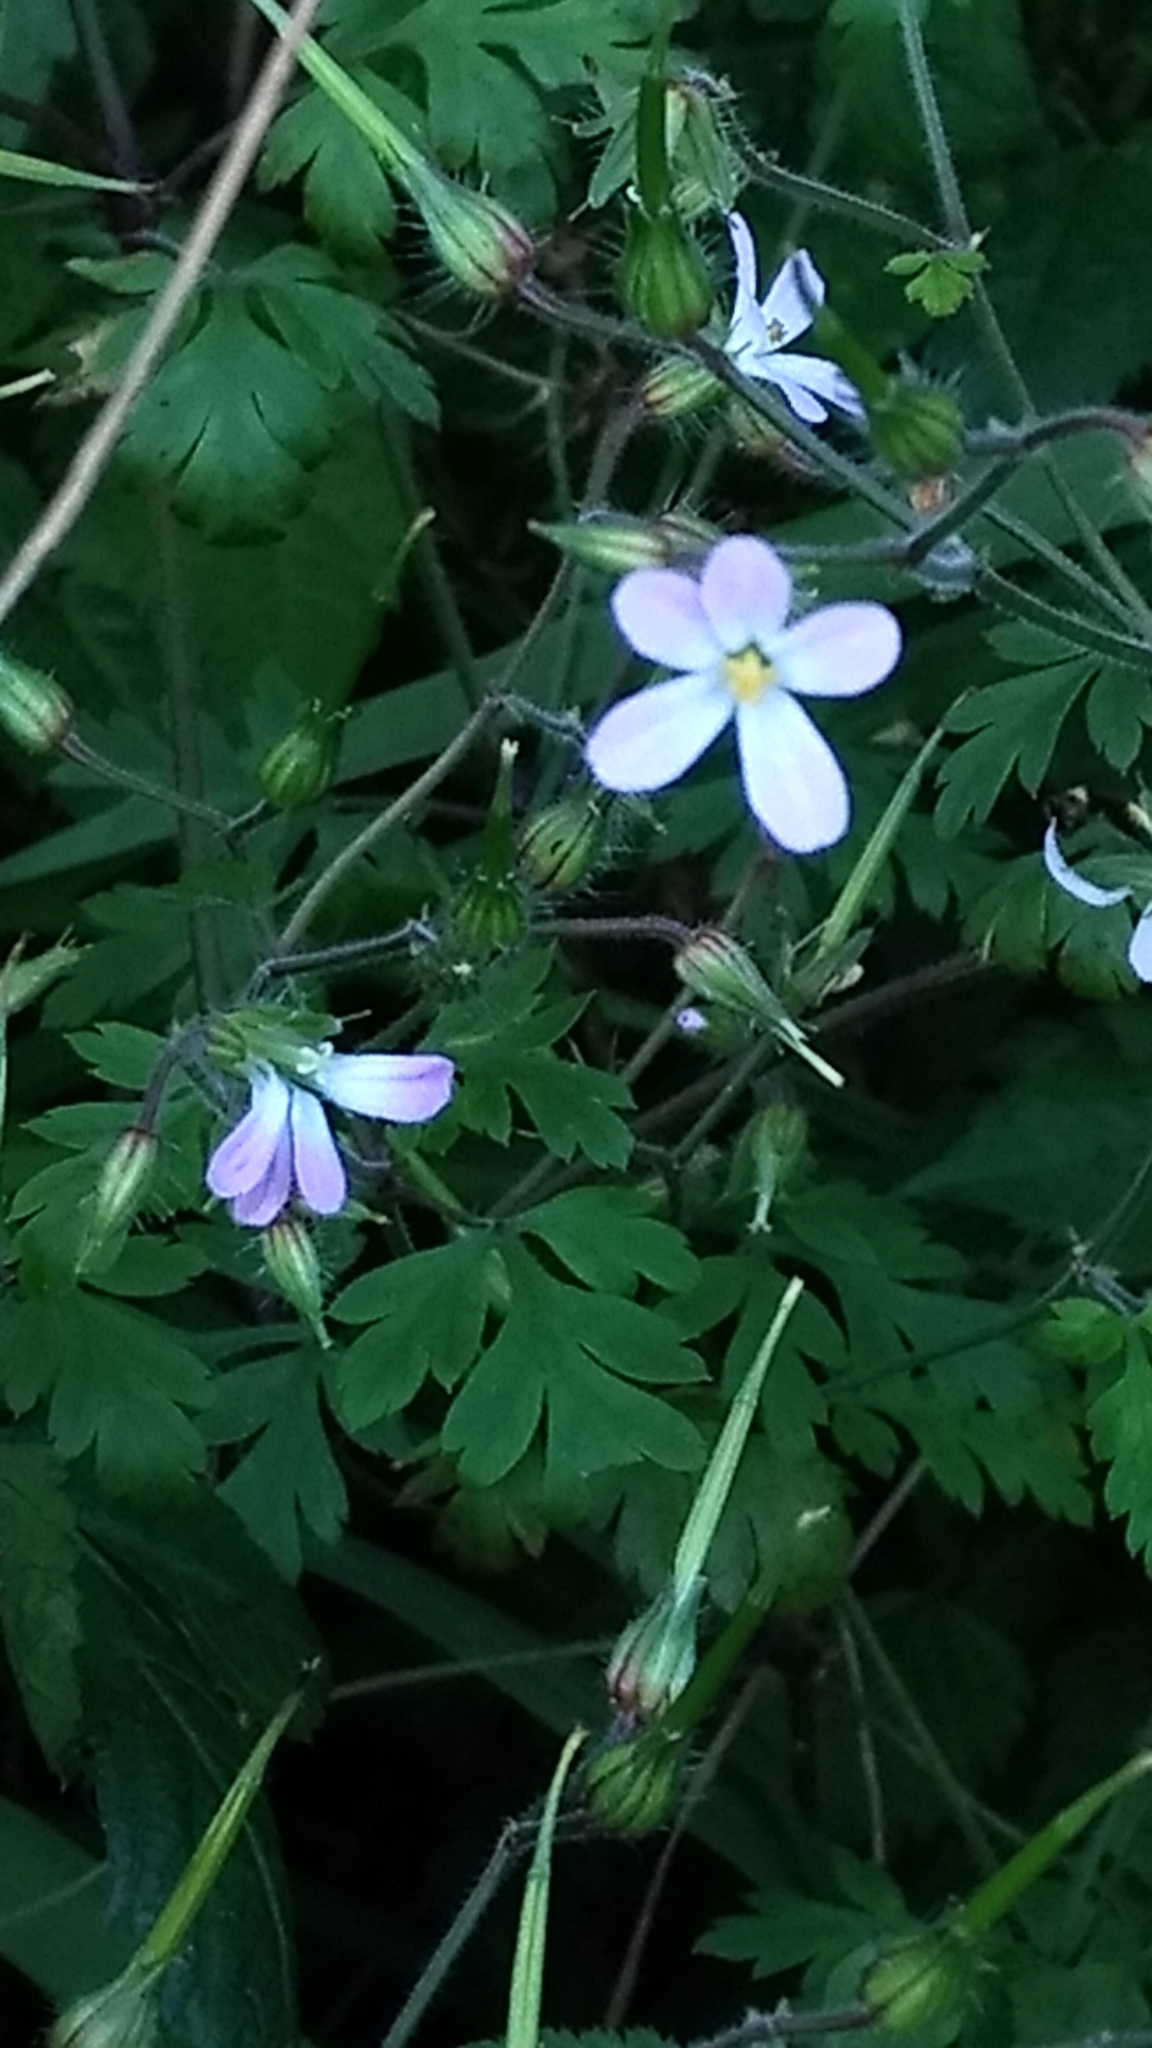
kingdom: Plantae
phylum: Tracheophyta
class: Magnoliopsida
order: Geraniales
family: Geraniaceae
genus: Geranium
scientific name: Geranium robertianum
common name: Herb-robert
